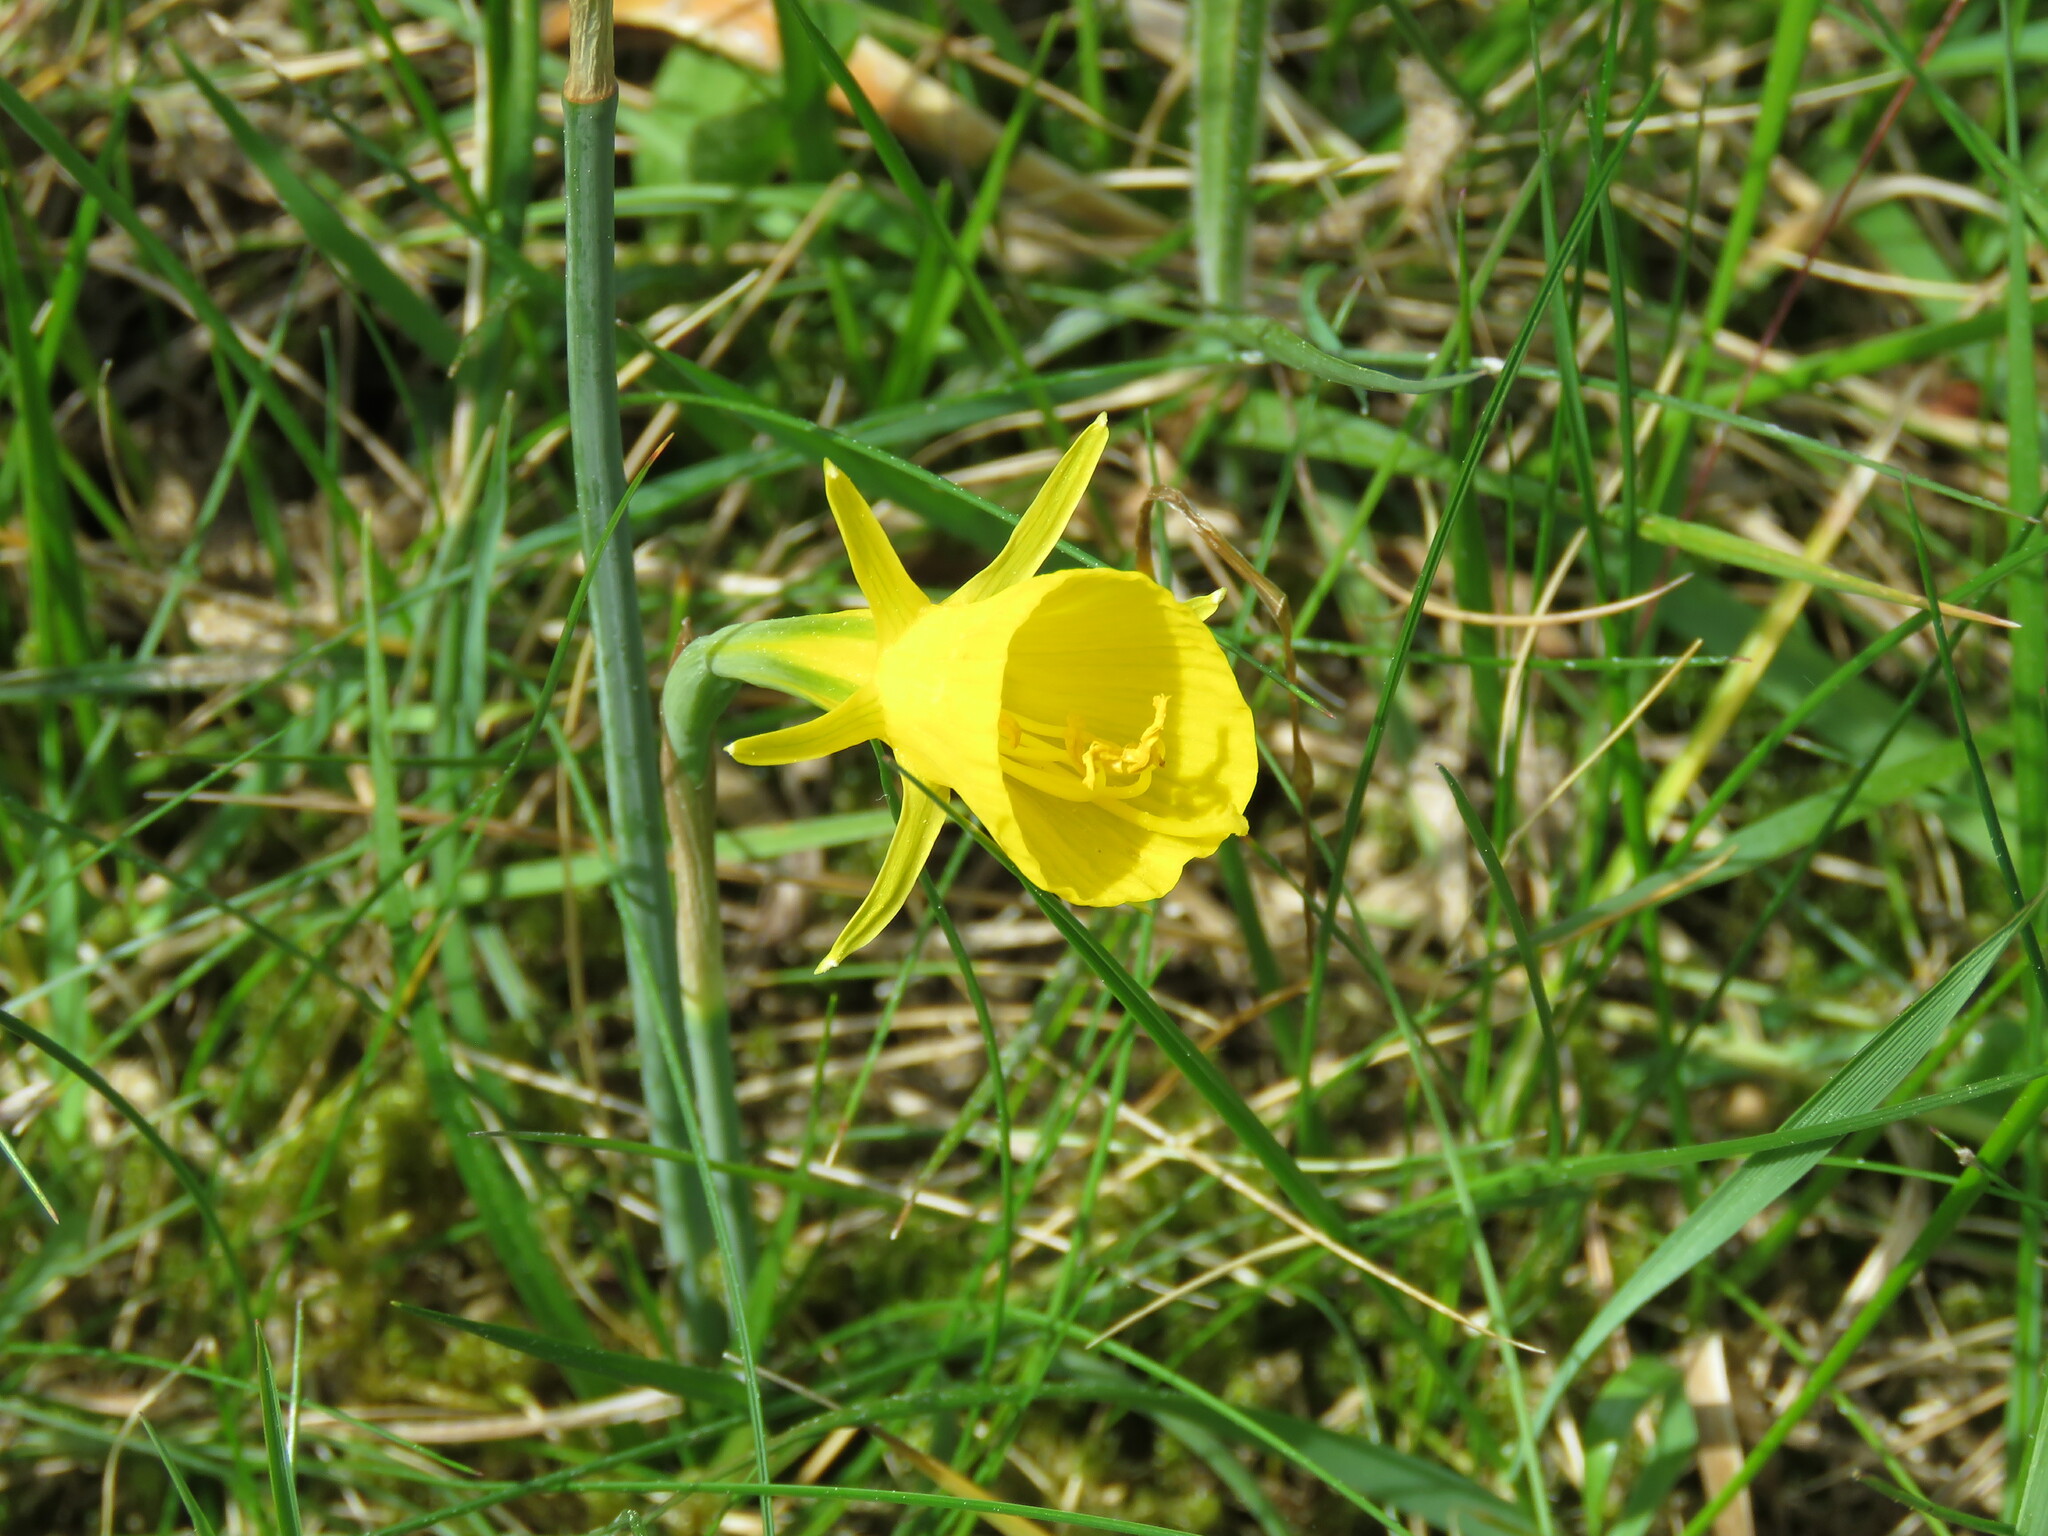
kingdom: Plantae
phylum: Tracheophyta
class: Liliopsida
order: Asparagales
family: Amaryllidaceae
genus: Narcissus
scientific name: Narcissus bulbocodium
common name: Hoop-petticoat daffodil
